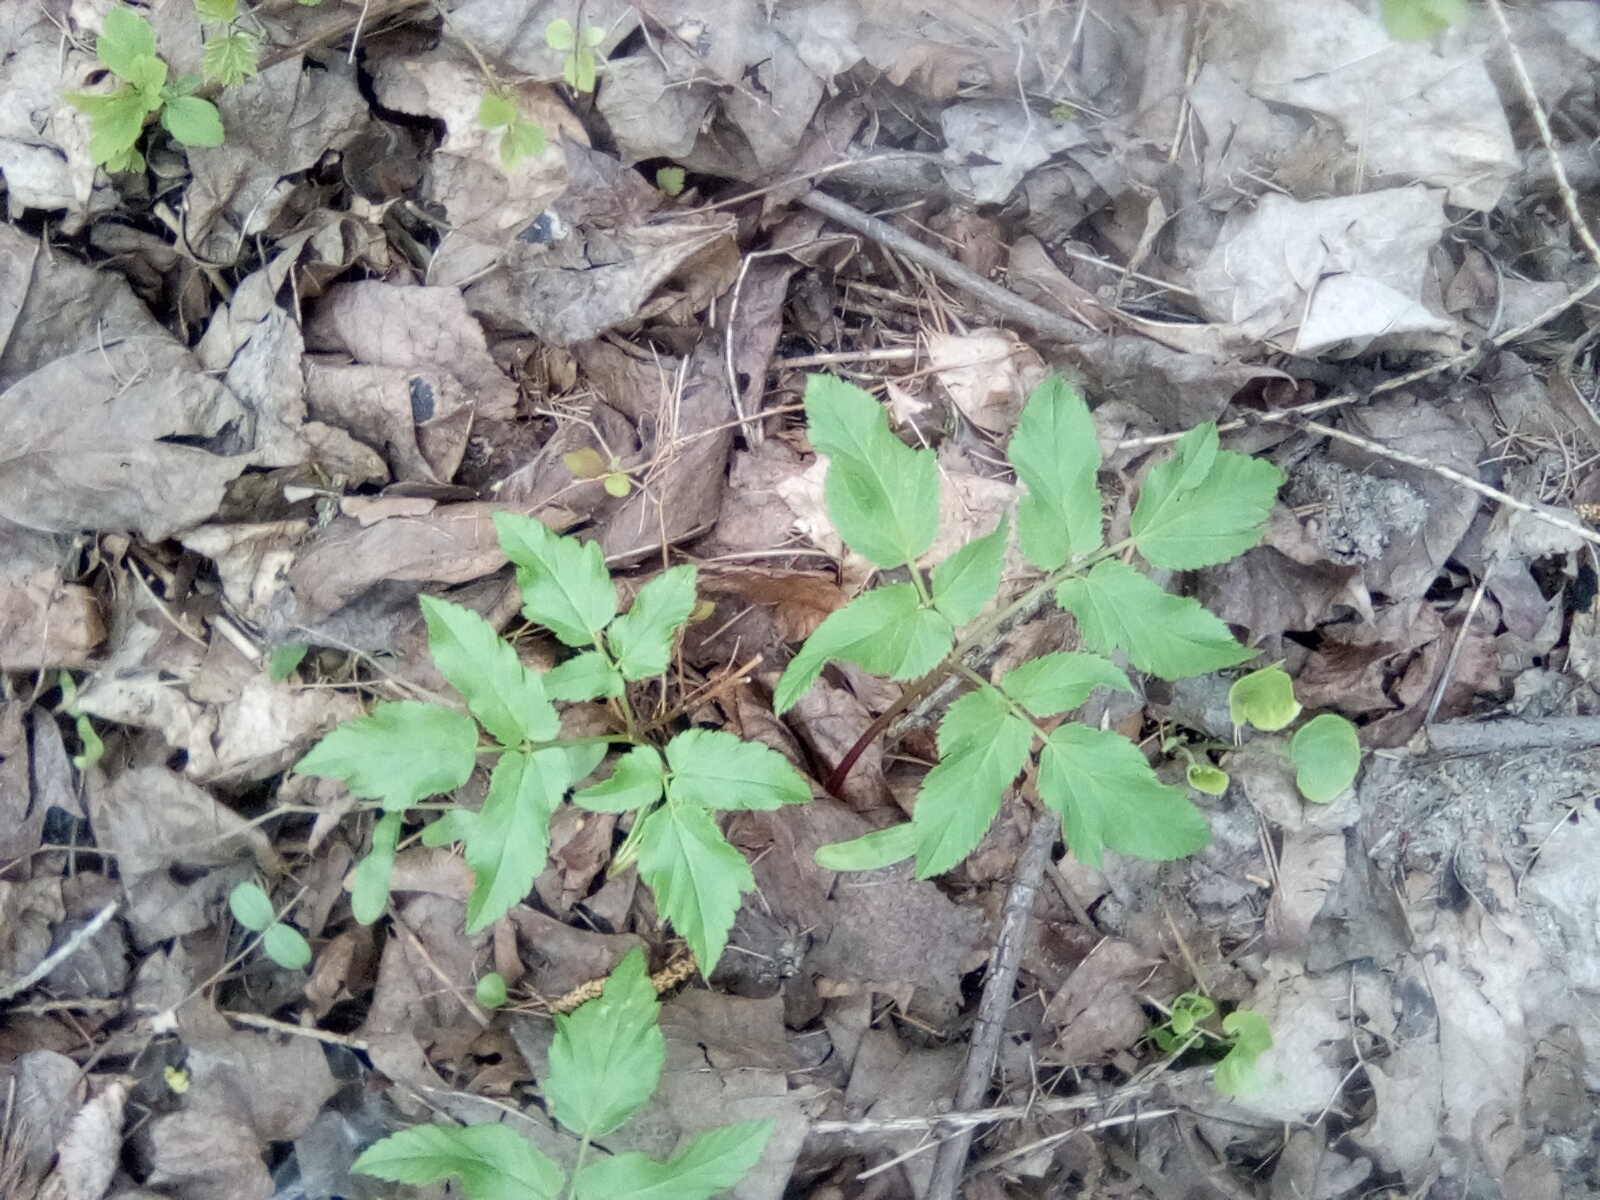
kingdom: Plantae
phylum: Tracheophyta
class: Magnoliopsida
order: Apiales
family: Apiaceae
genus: Aegopodium
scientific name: Aegopodium podagraria
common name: Ground-elder
